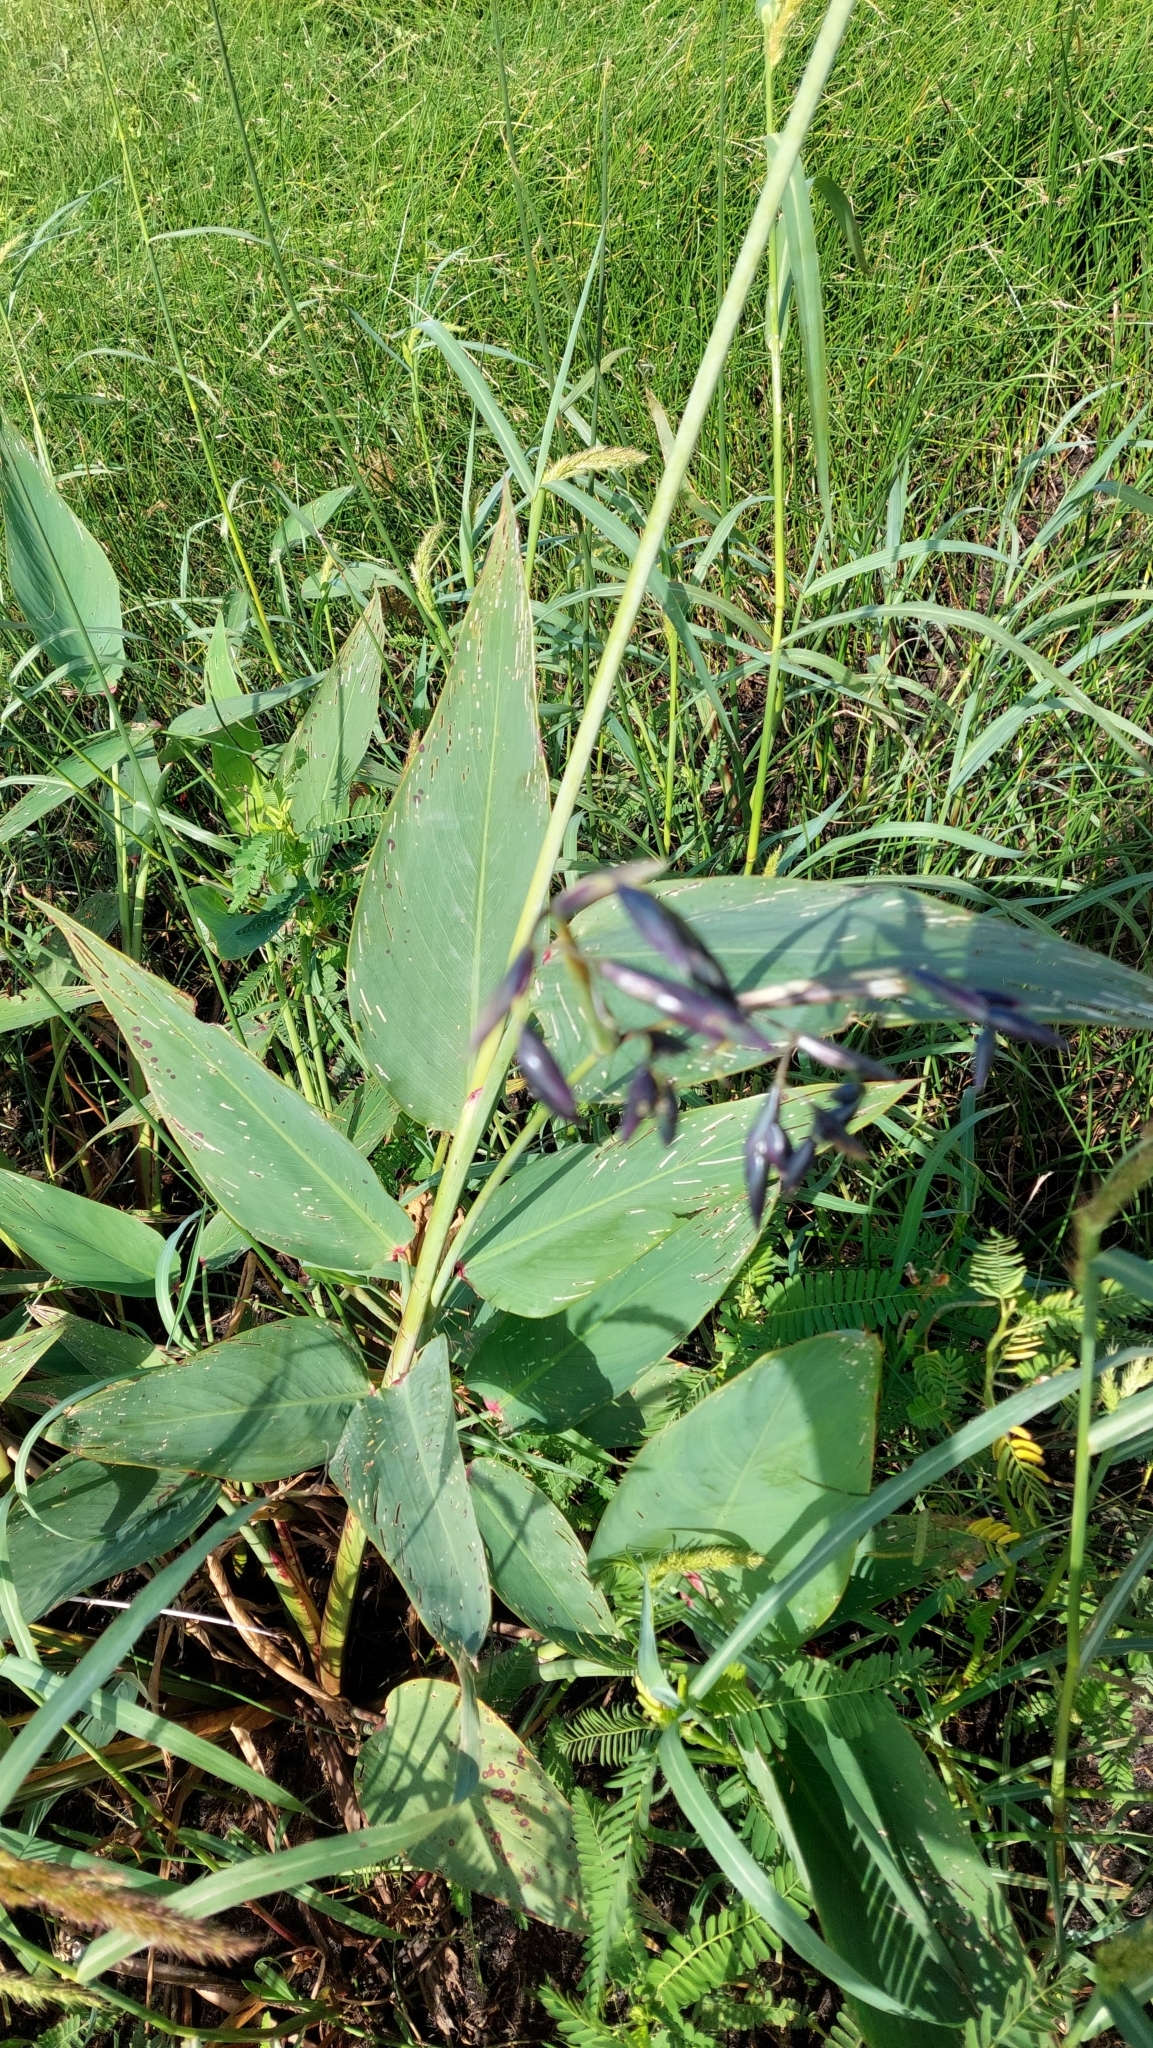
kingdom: Plantae
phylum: Tracheophyta
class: Liliopsida
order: Zingiberales
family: Marantaceae
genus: Thalia
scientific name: Thalia geniculata
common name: Arrowroot
